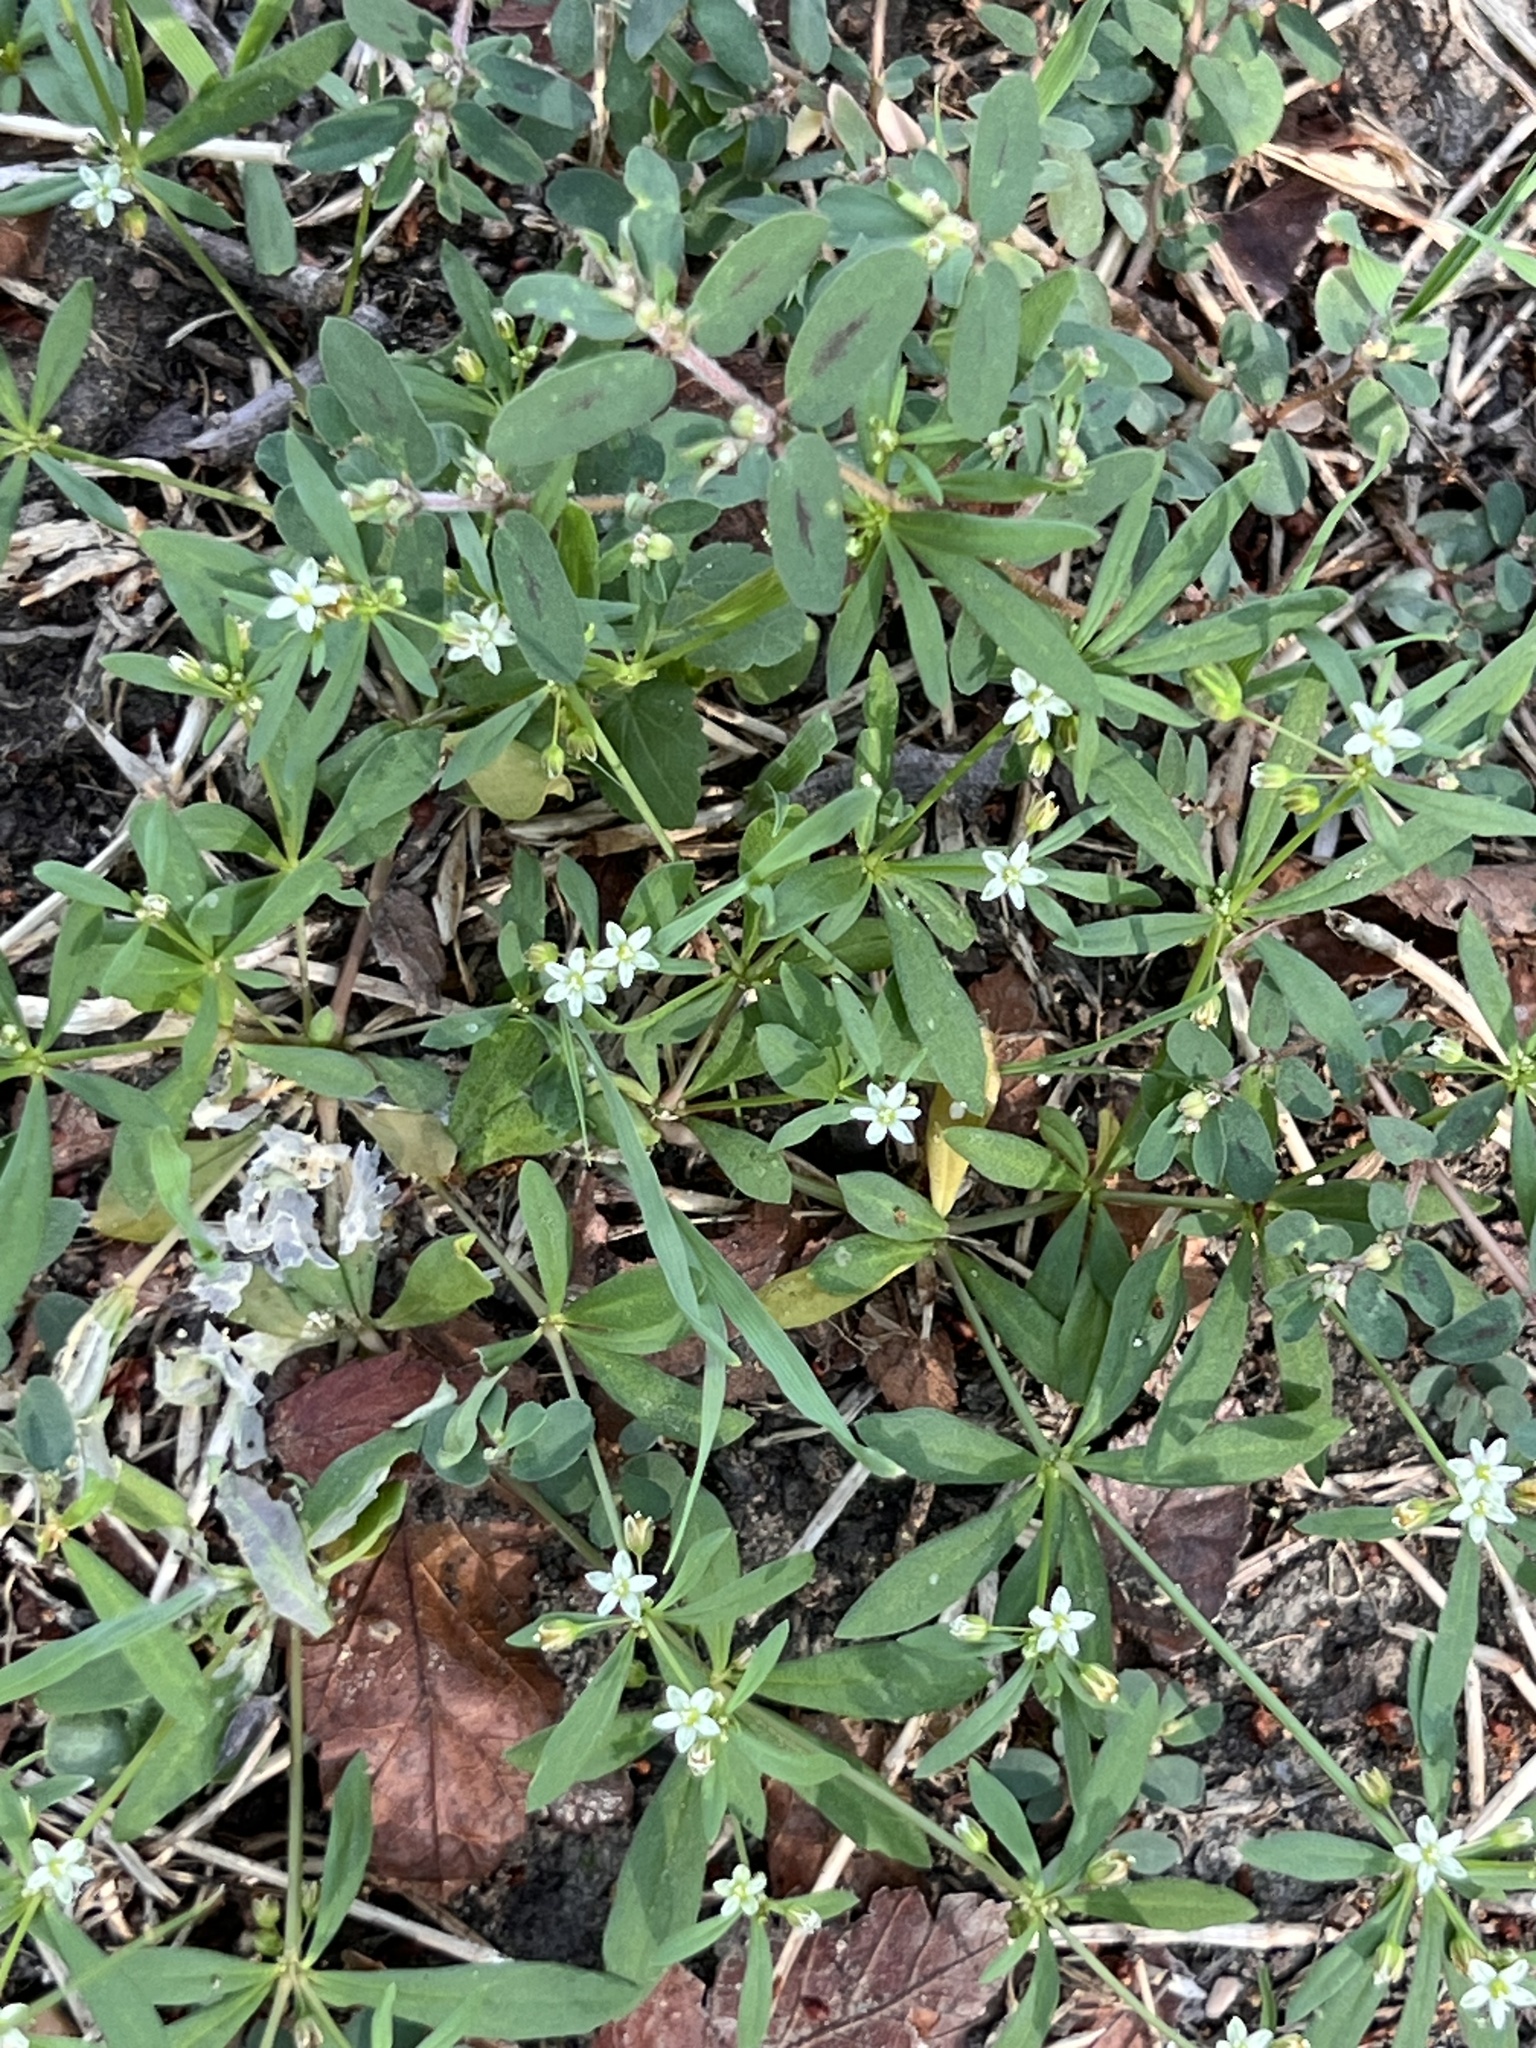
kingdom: Plantae
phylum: Tracheophyta
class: Magnoliopsida
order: Caryophyllales
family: Molluginaceae
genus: Mollugo
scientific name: Mollugo verticillata
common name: Green carpetweed
